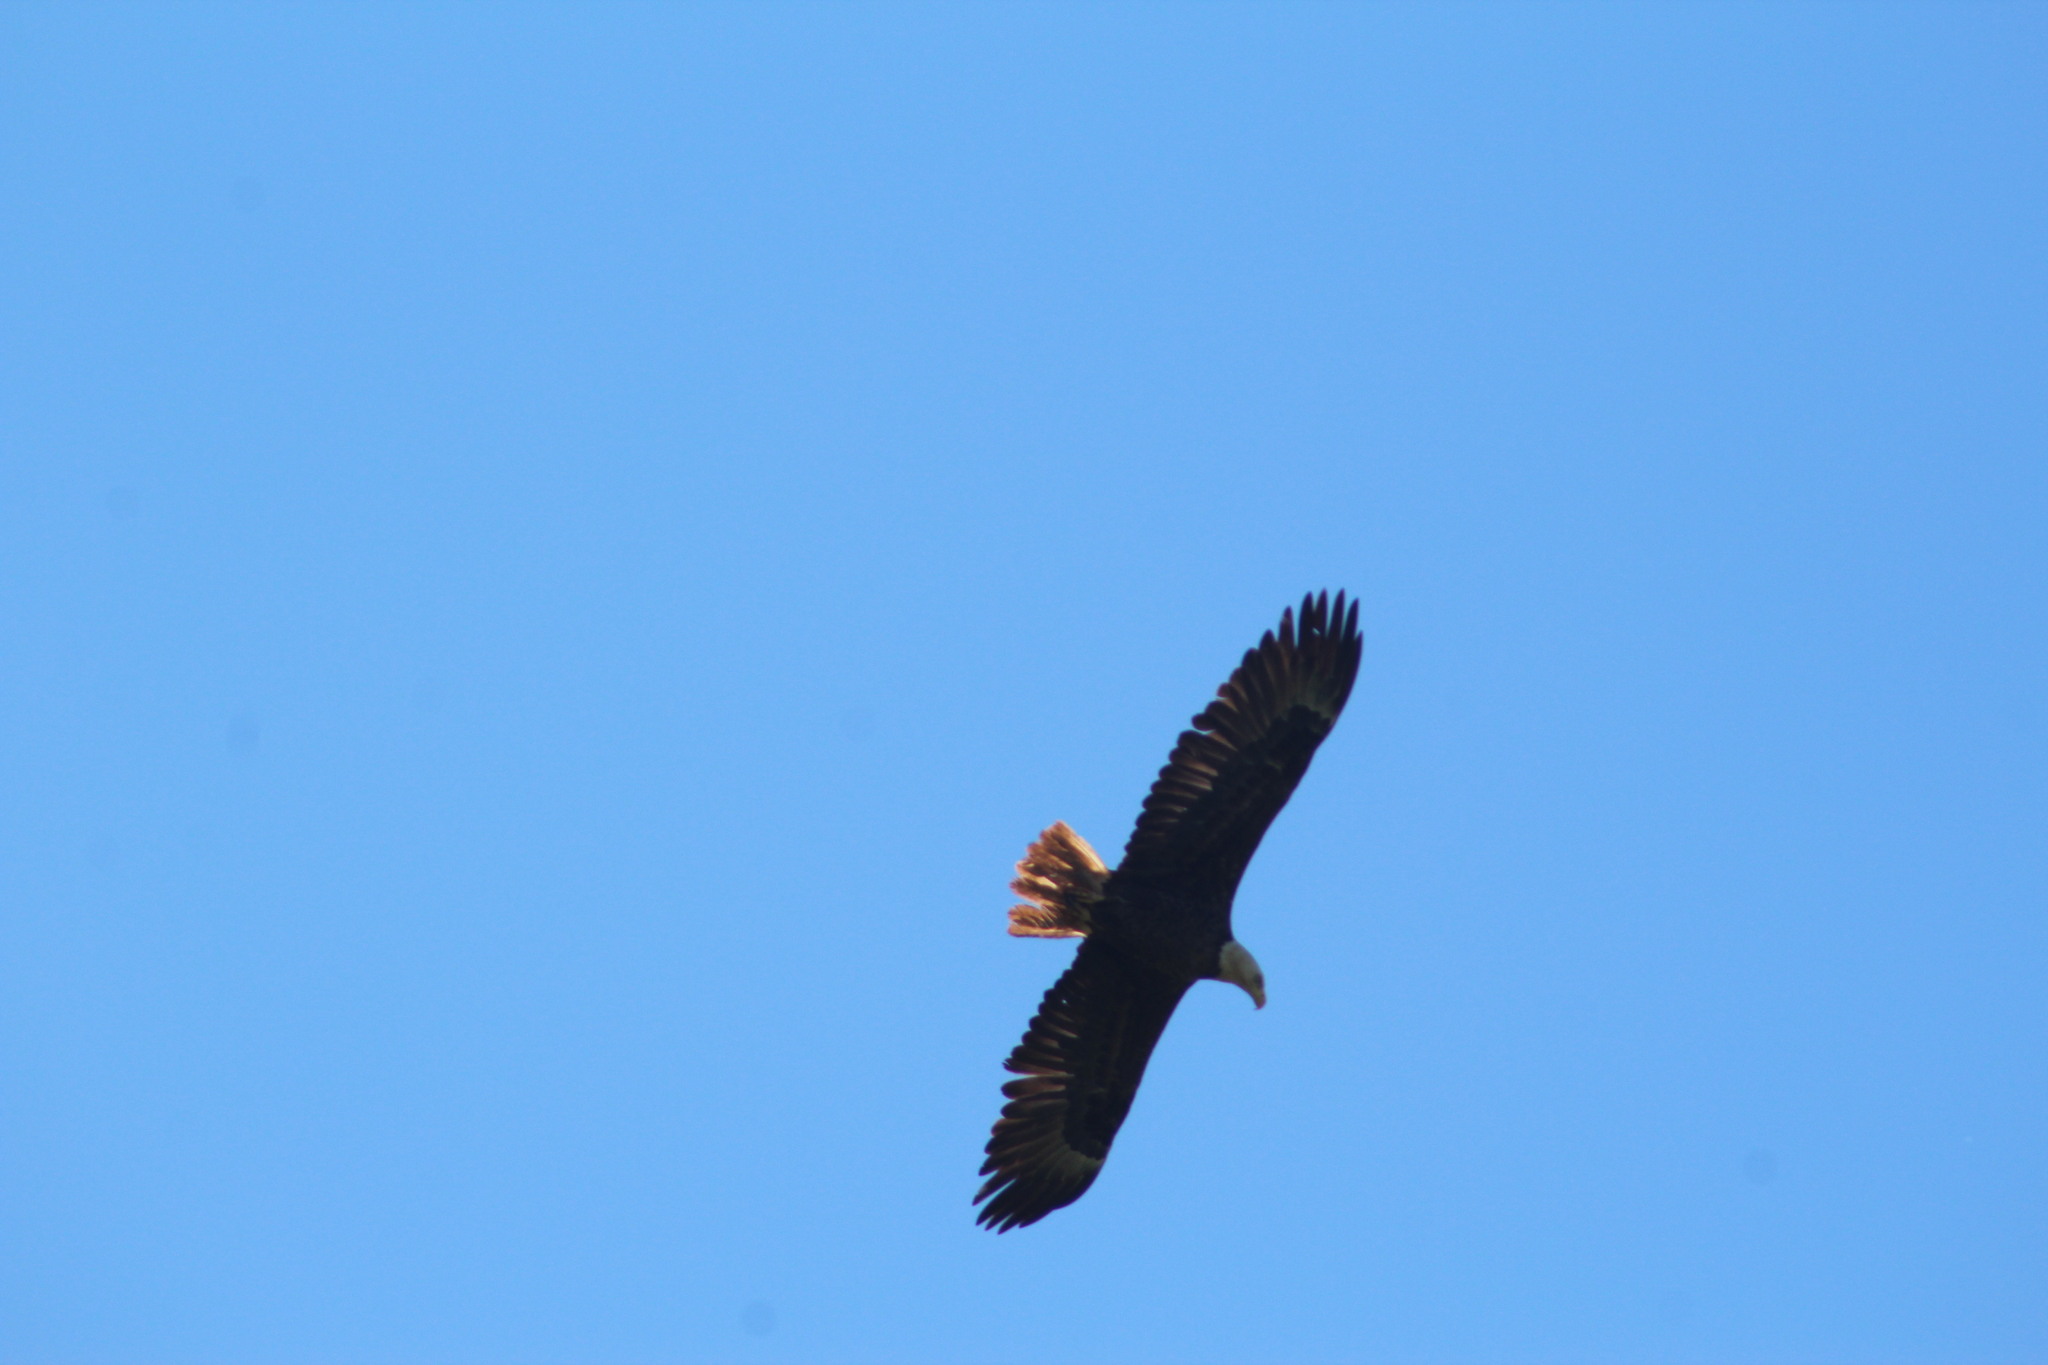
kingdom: Animalia
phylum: Chordata
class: Aves
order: Accipitriformes
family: Accipitridae
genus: Haliaeetus
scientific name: Haliaeetus leucocephalus
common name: Bald eagle
